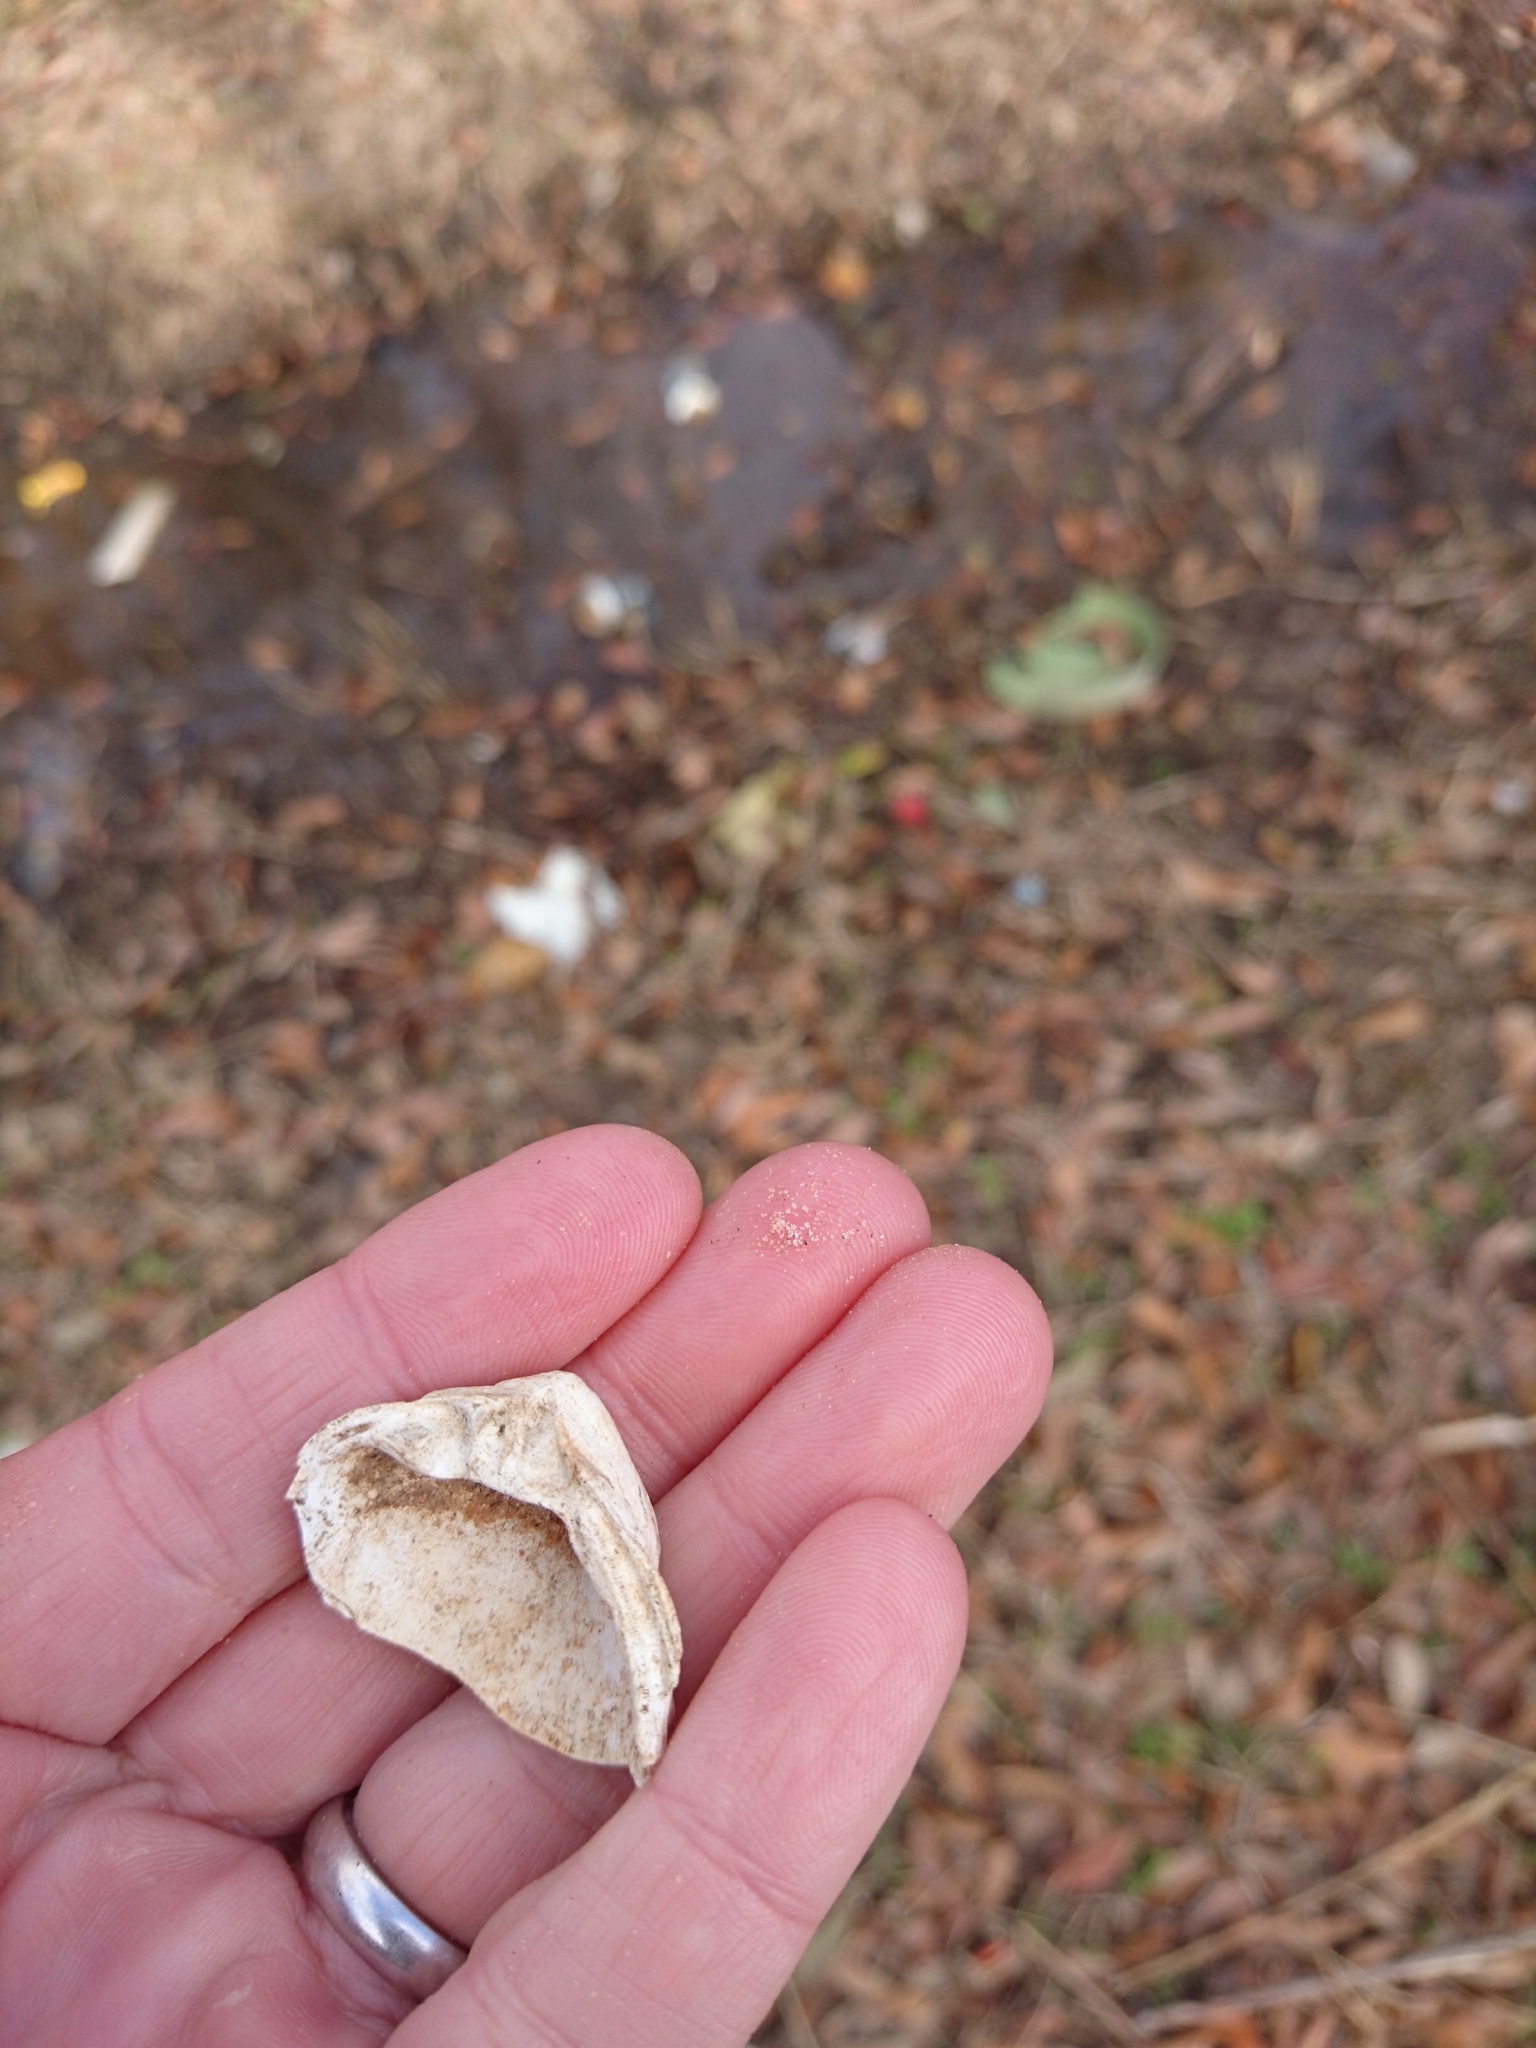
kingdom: Animalia
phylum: Mollusca
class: Bivalvia
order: Venerida
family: Mactridae
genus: Rangia
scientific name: Rangia cuneata
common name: Atlantic rangia
